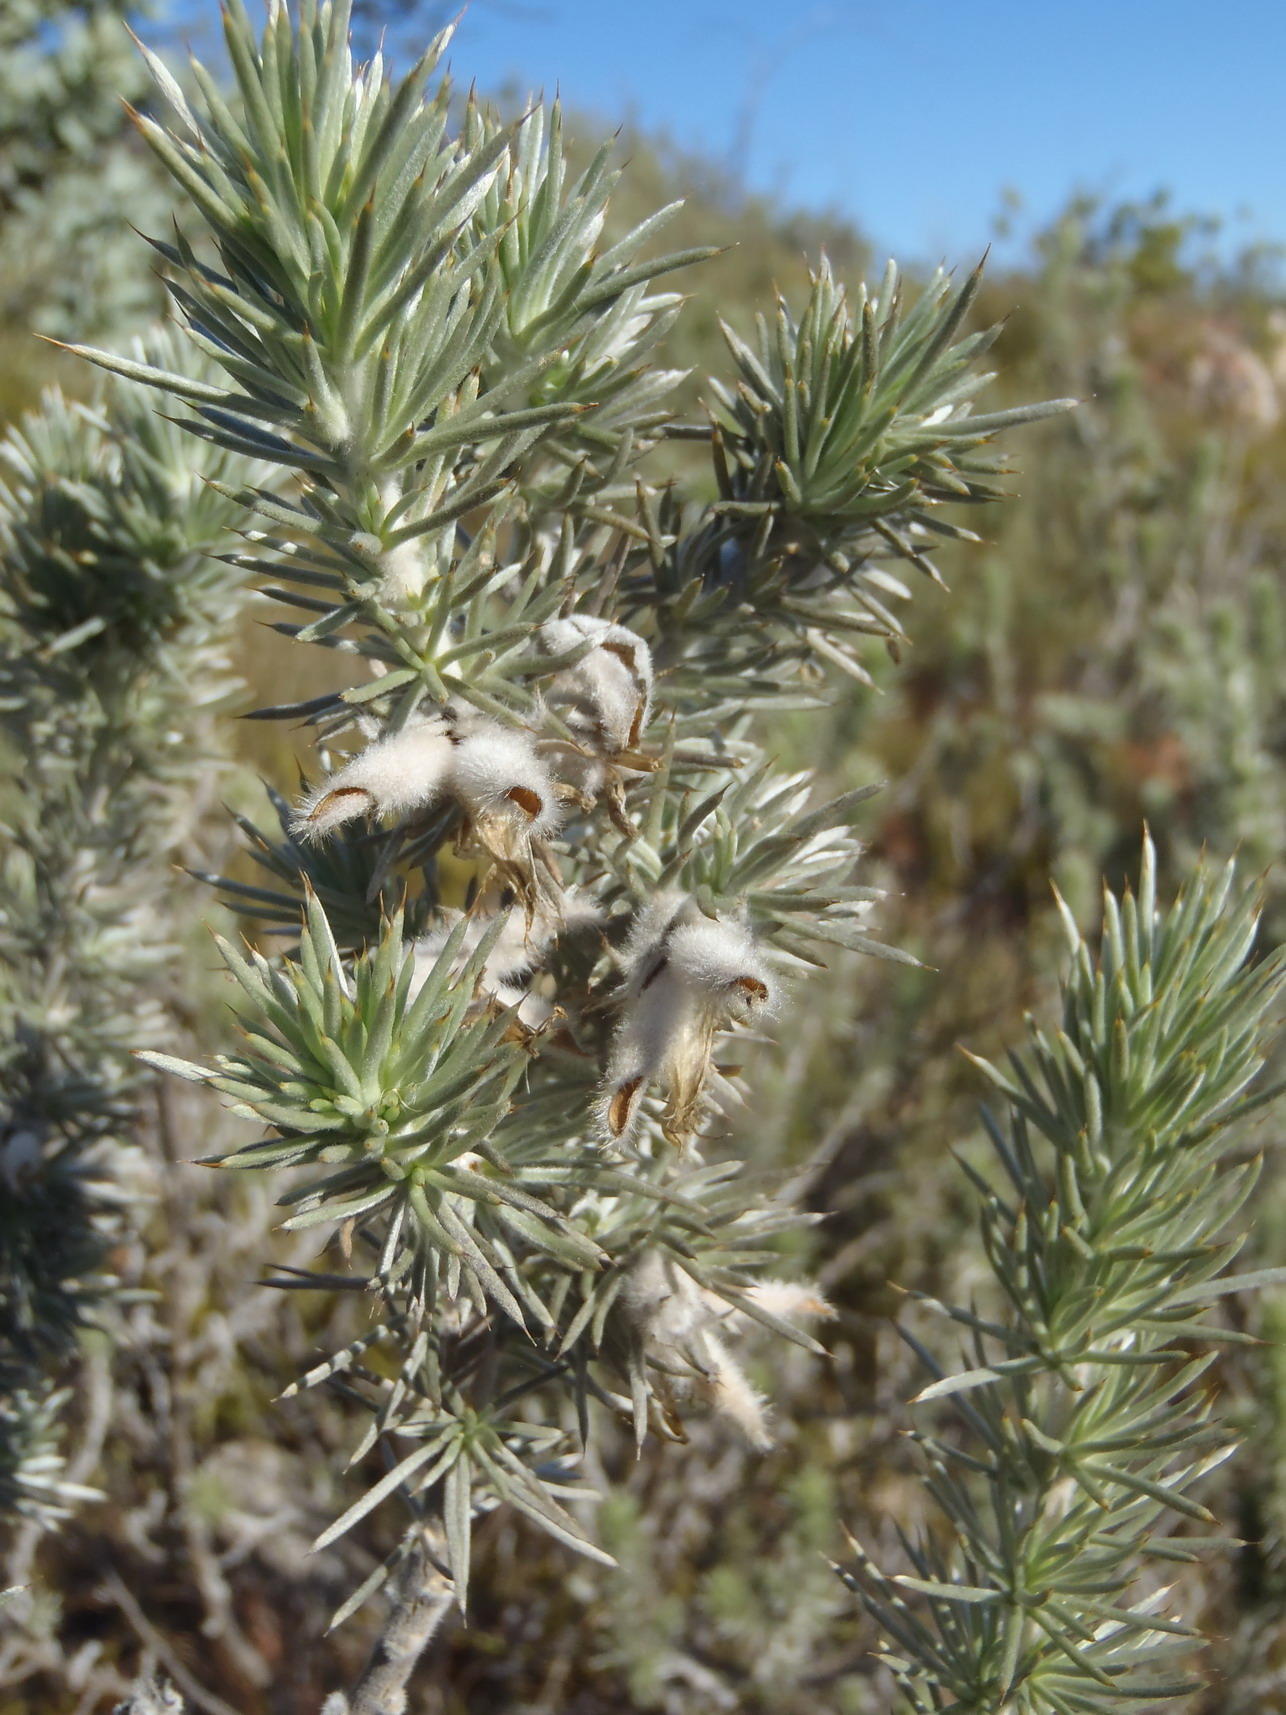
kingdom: Plantae
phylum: Tracheophyta
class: Magnoliopsida
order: Fabales
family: Fabaceae
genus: Aspalathus
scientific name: Aspalathus hystrix
